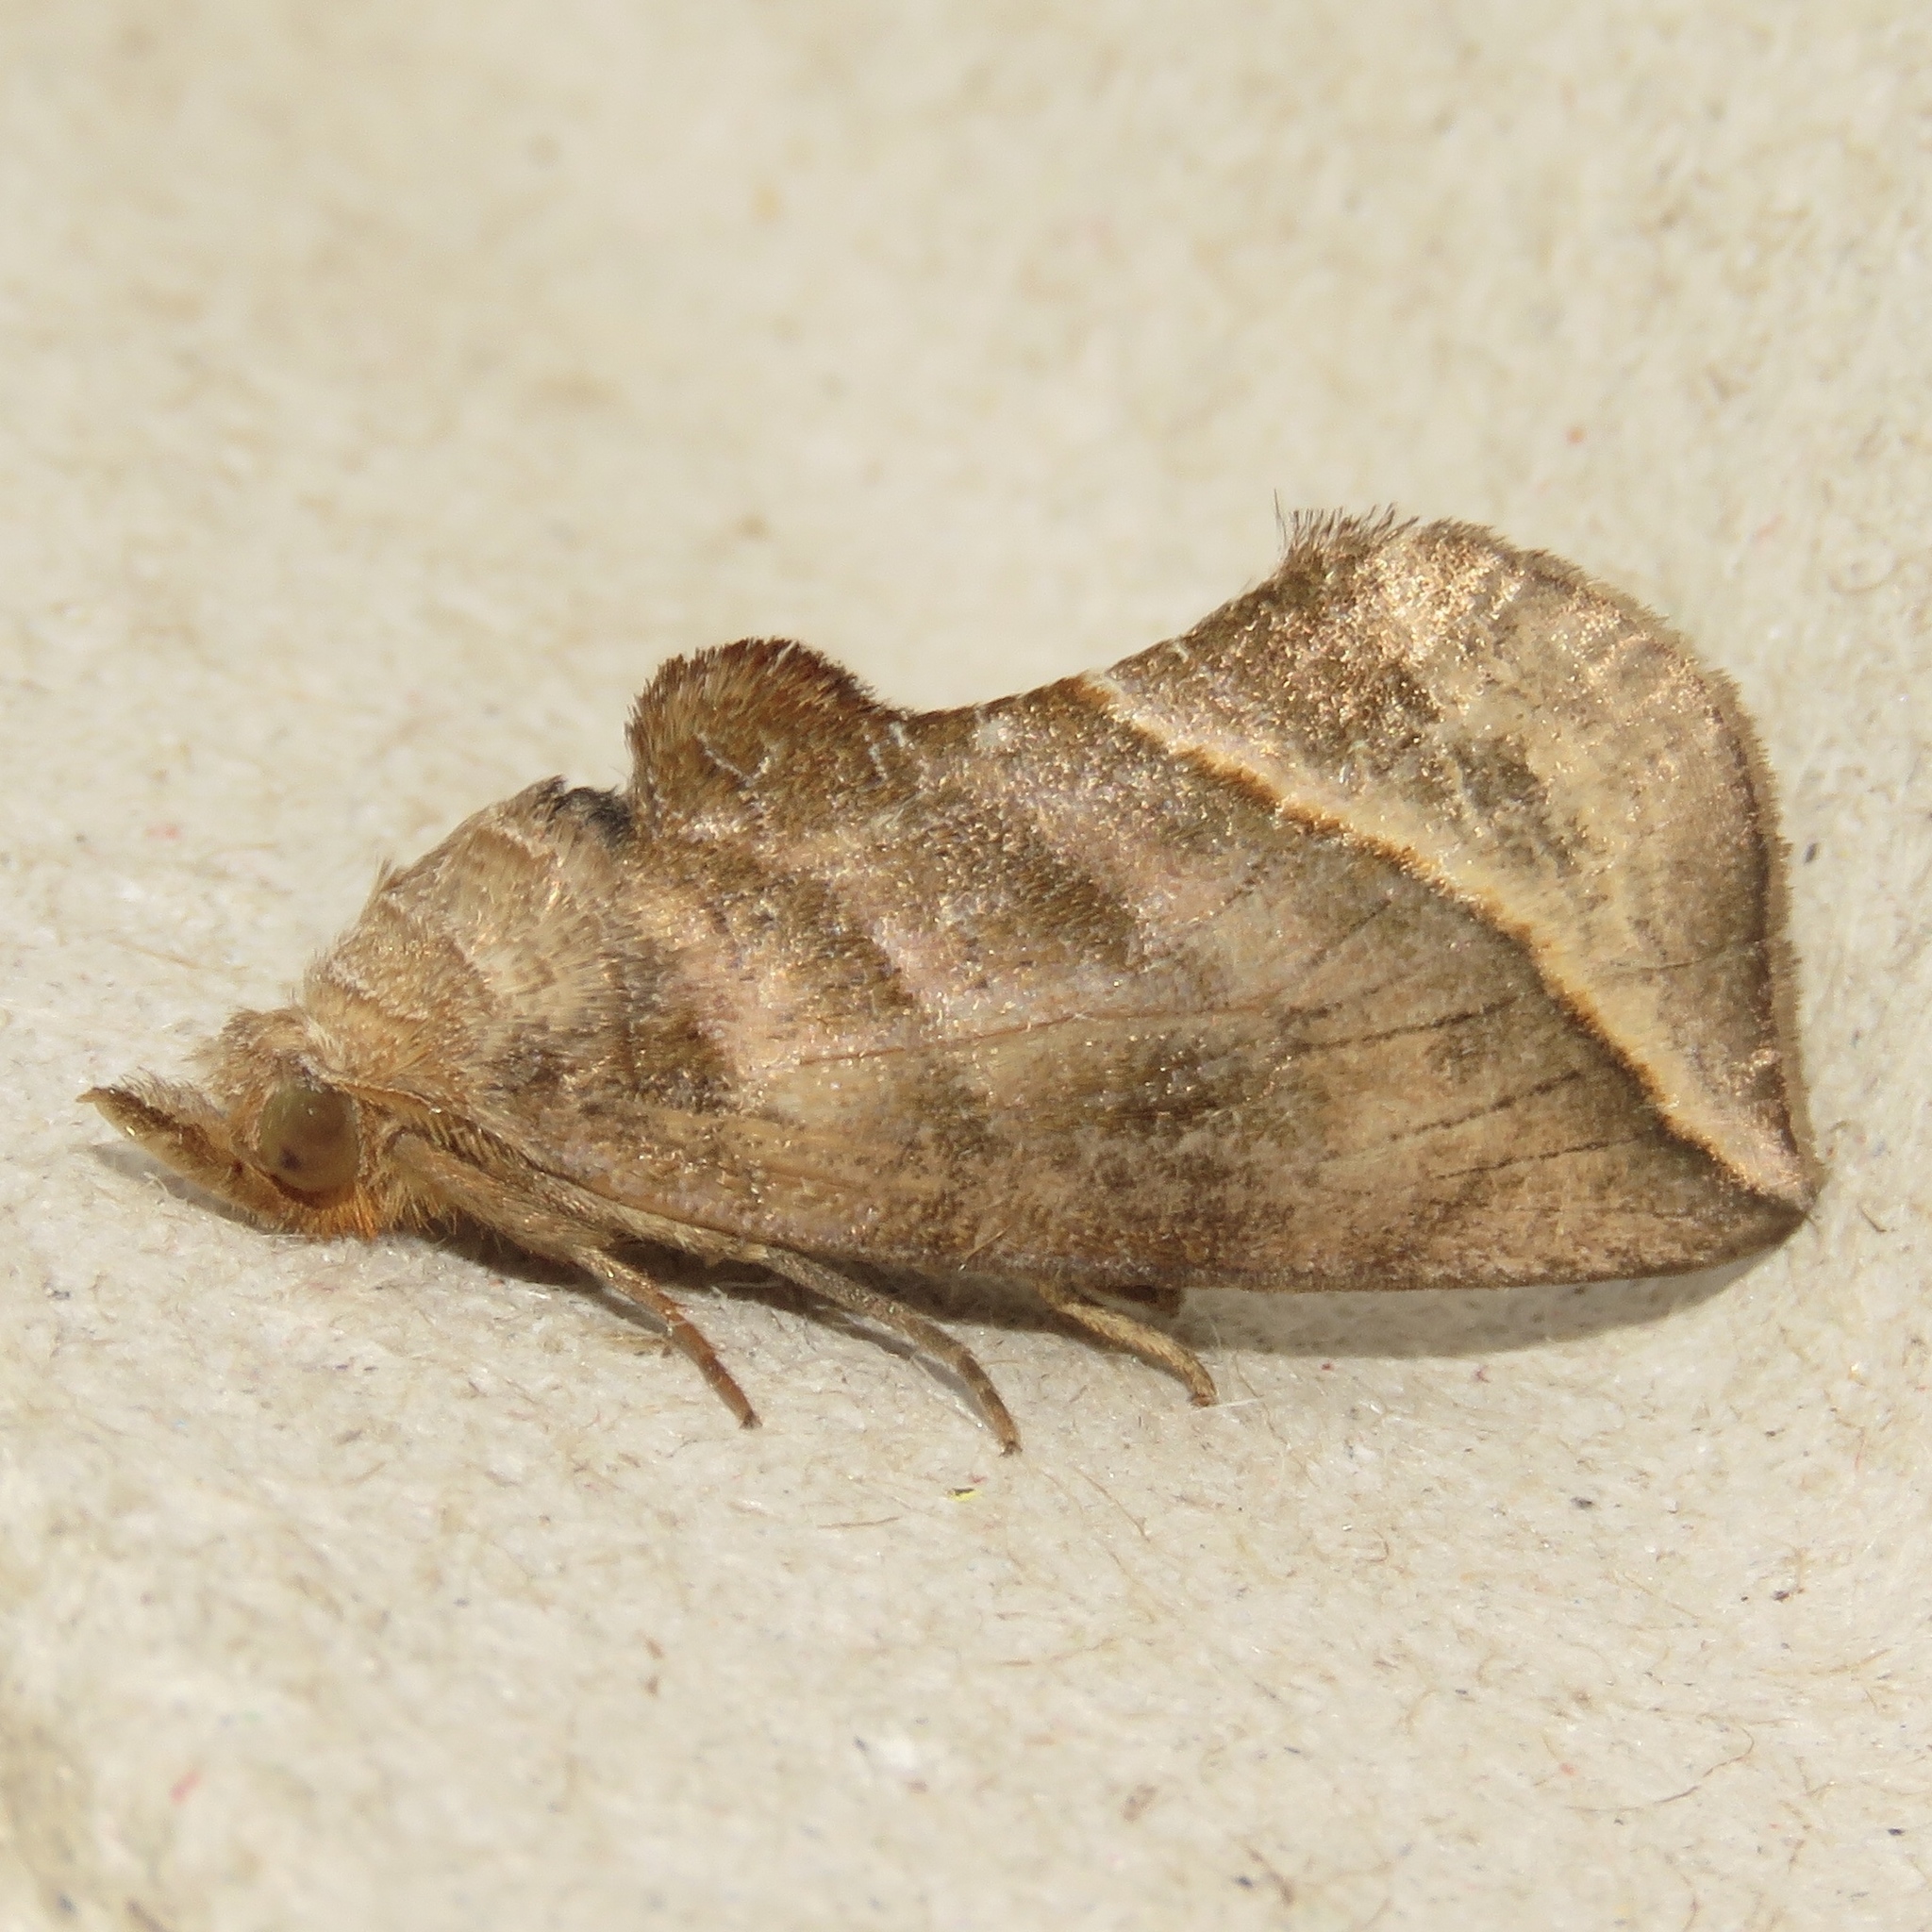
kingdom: Animalia
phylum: Arthropoda
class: Insecta
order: Lepidoptera
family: Erebidae
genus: Calyptra
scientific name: Calyptra canadensis
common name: Canadian owlet
